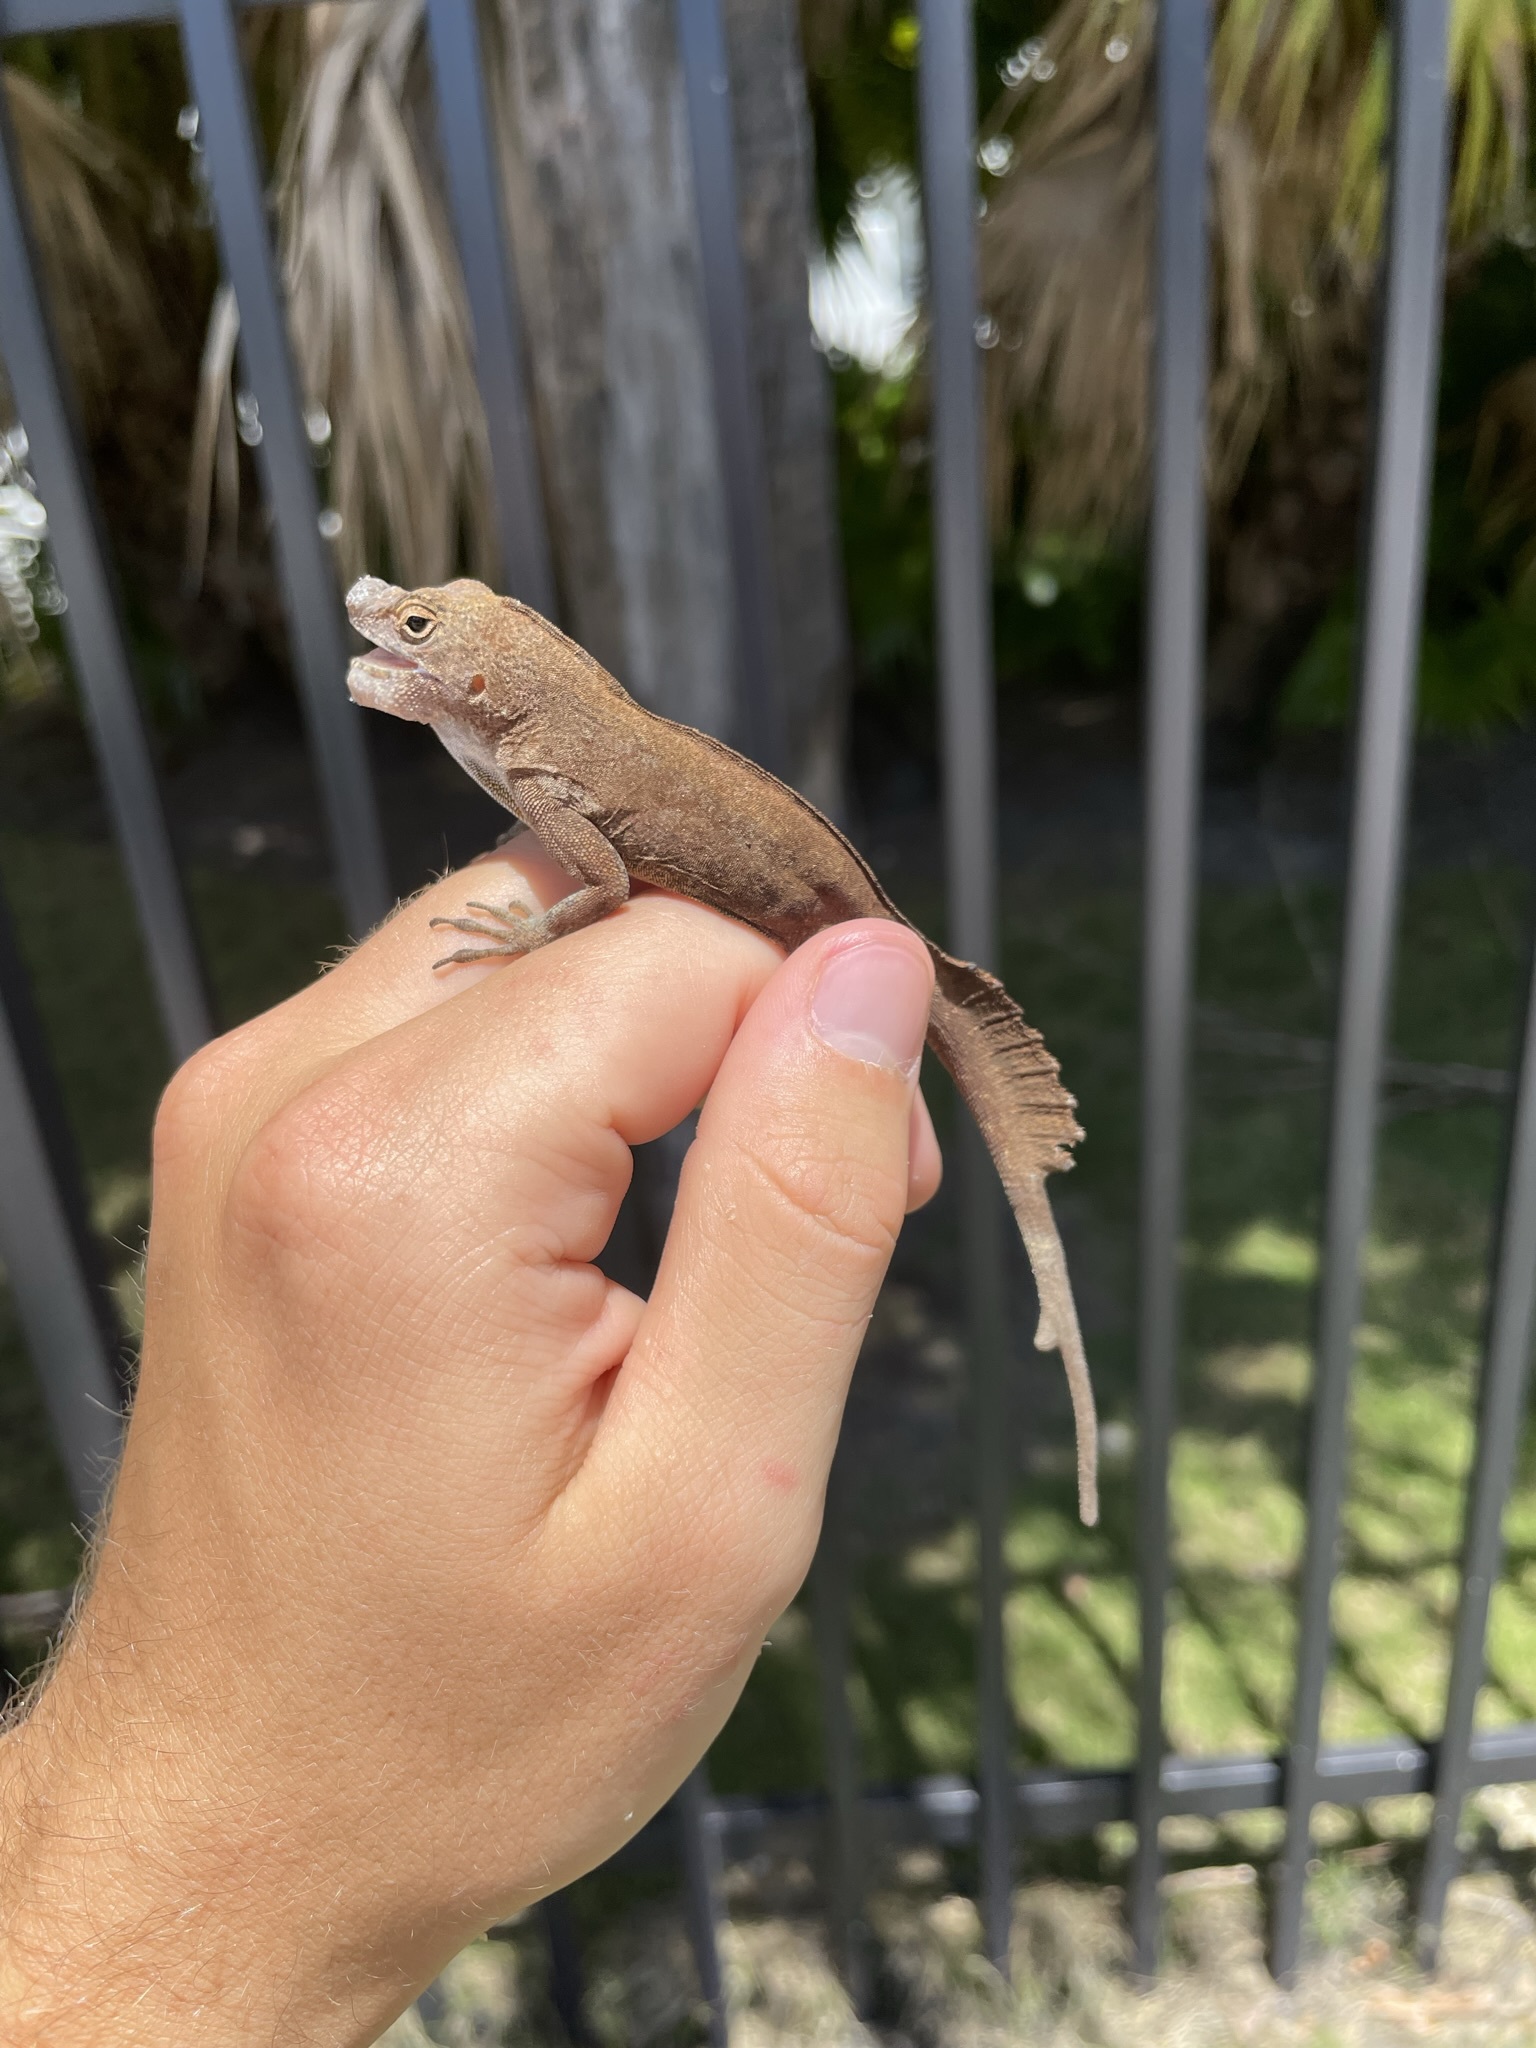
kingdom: Animalia
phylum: Chordata
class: Squamata
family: Dactyloidae
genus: Anolis
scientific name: Anolis cristatellus
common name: Crested anole
